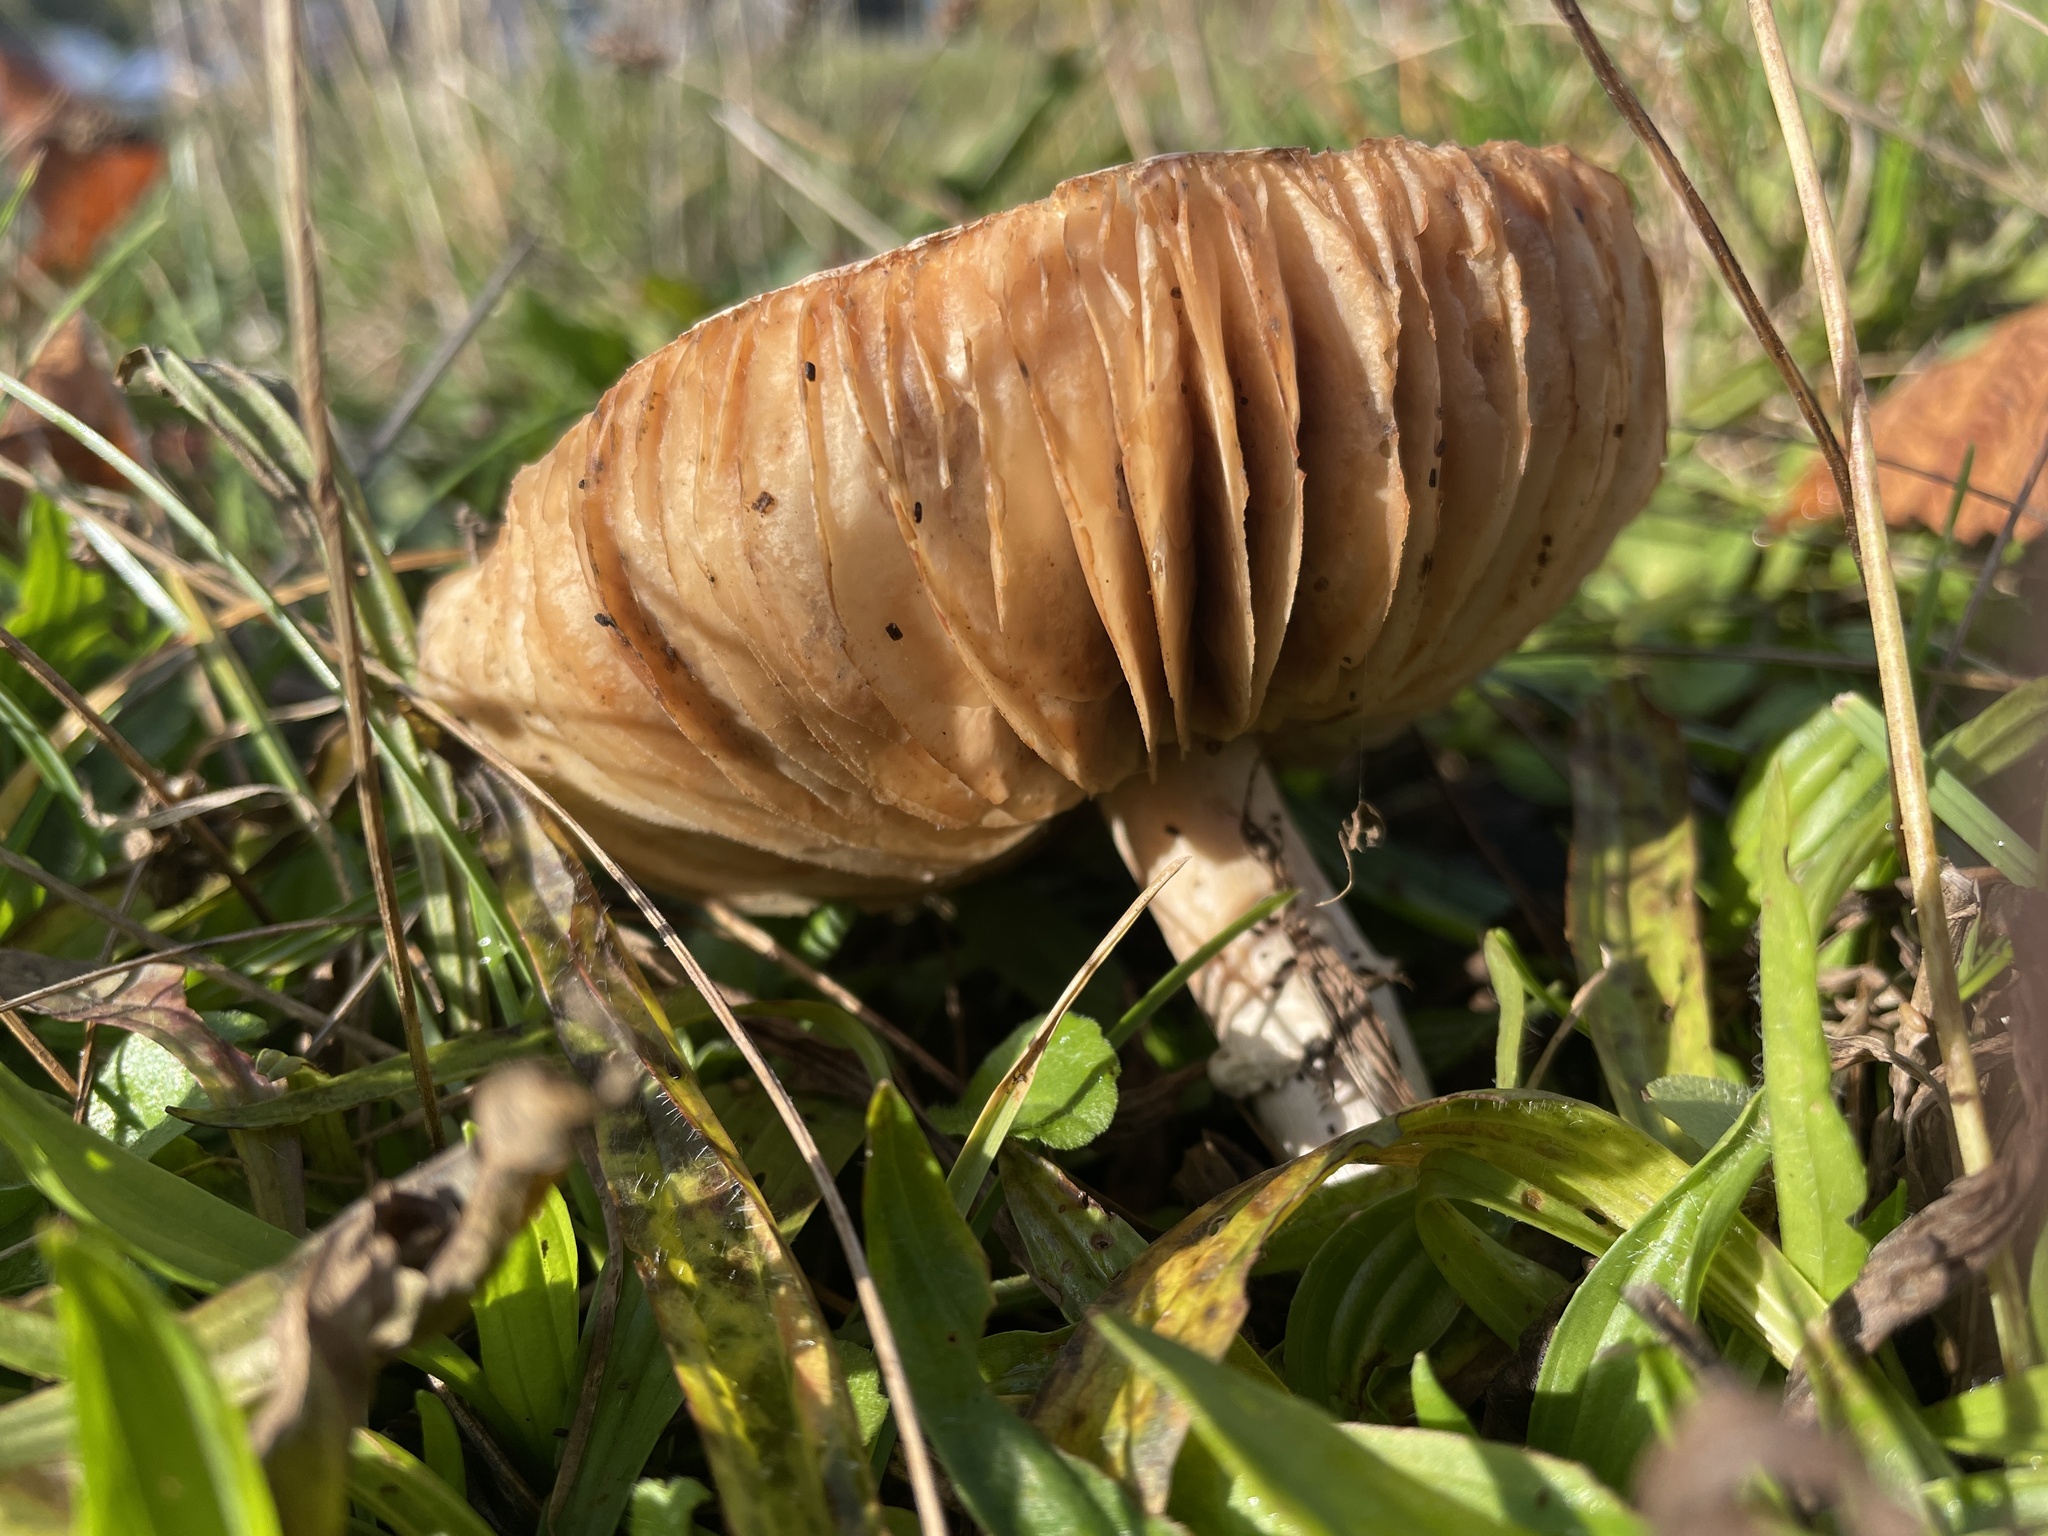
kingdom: Fungi
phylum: Basidiomycota
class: Agaricomycetes
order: Agaricales
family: Agaricaceae
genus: Leucoagaricus
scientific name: Leucoagaricus leucothites
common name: White dapperling
